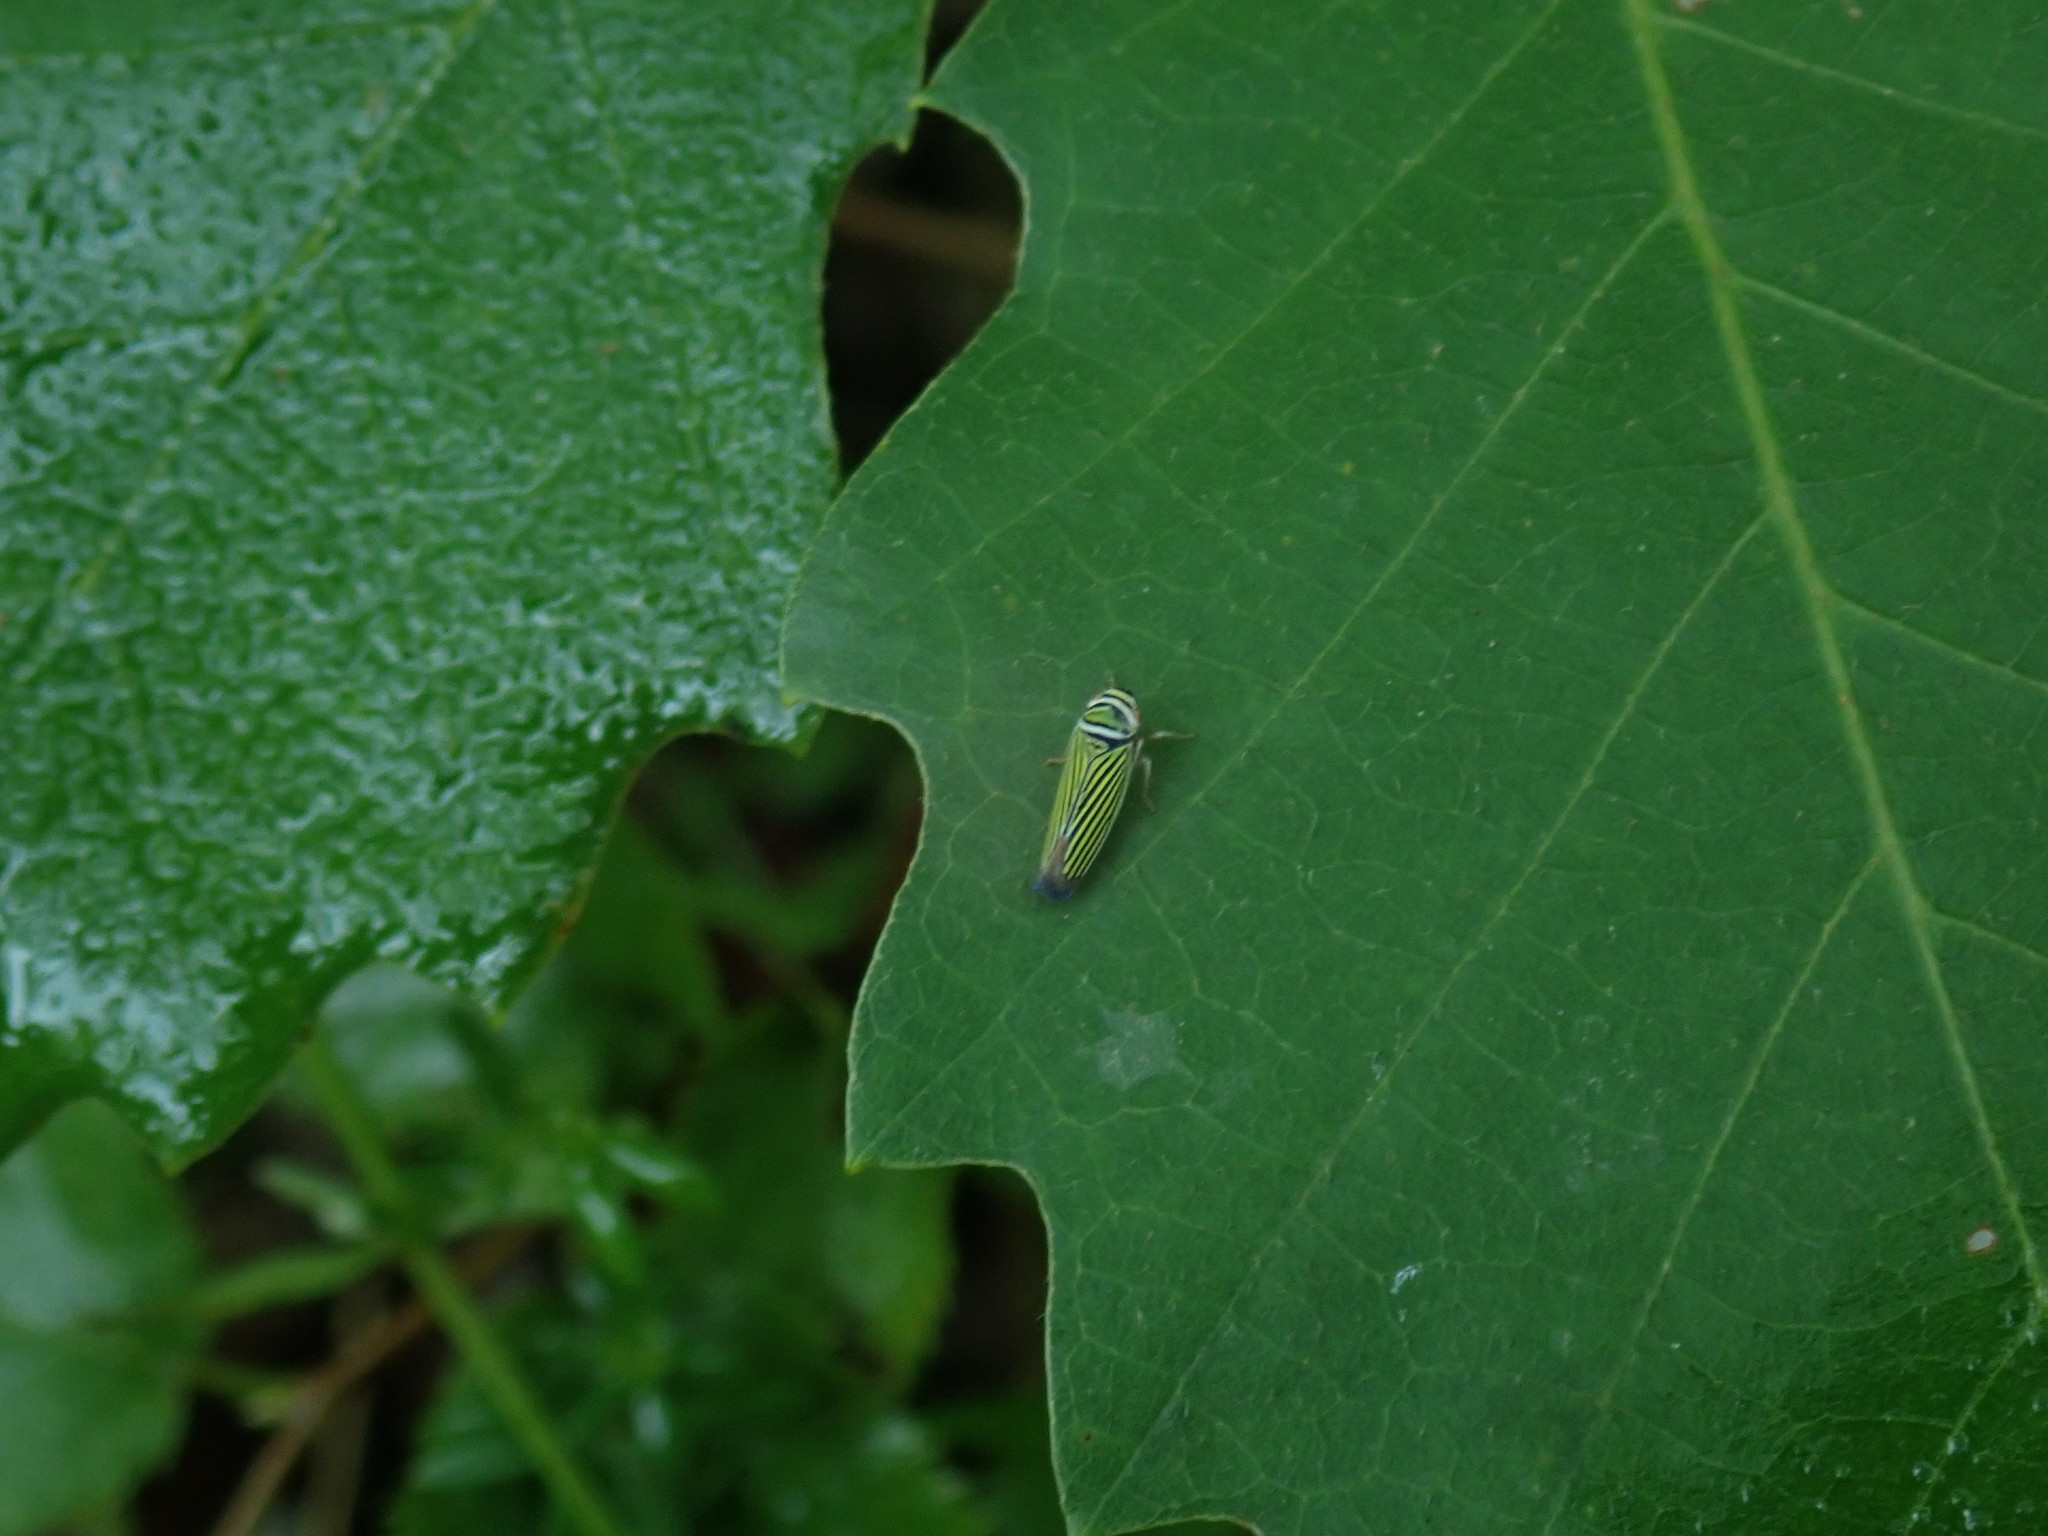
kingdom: Animalia
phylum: Arthropoda
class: Insecta
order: Hemiptera
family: Cicadellidae
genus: Tylozygus
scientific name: Tylozygus bifidus
